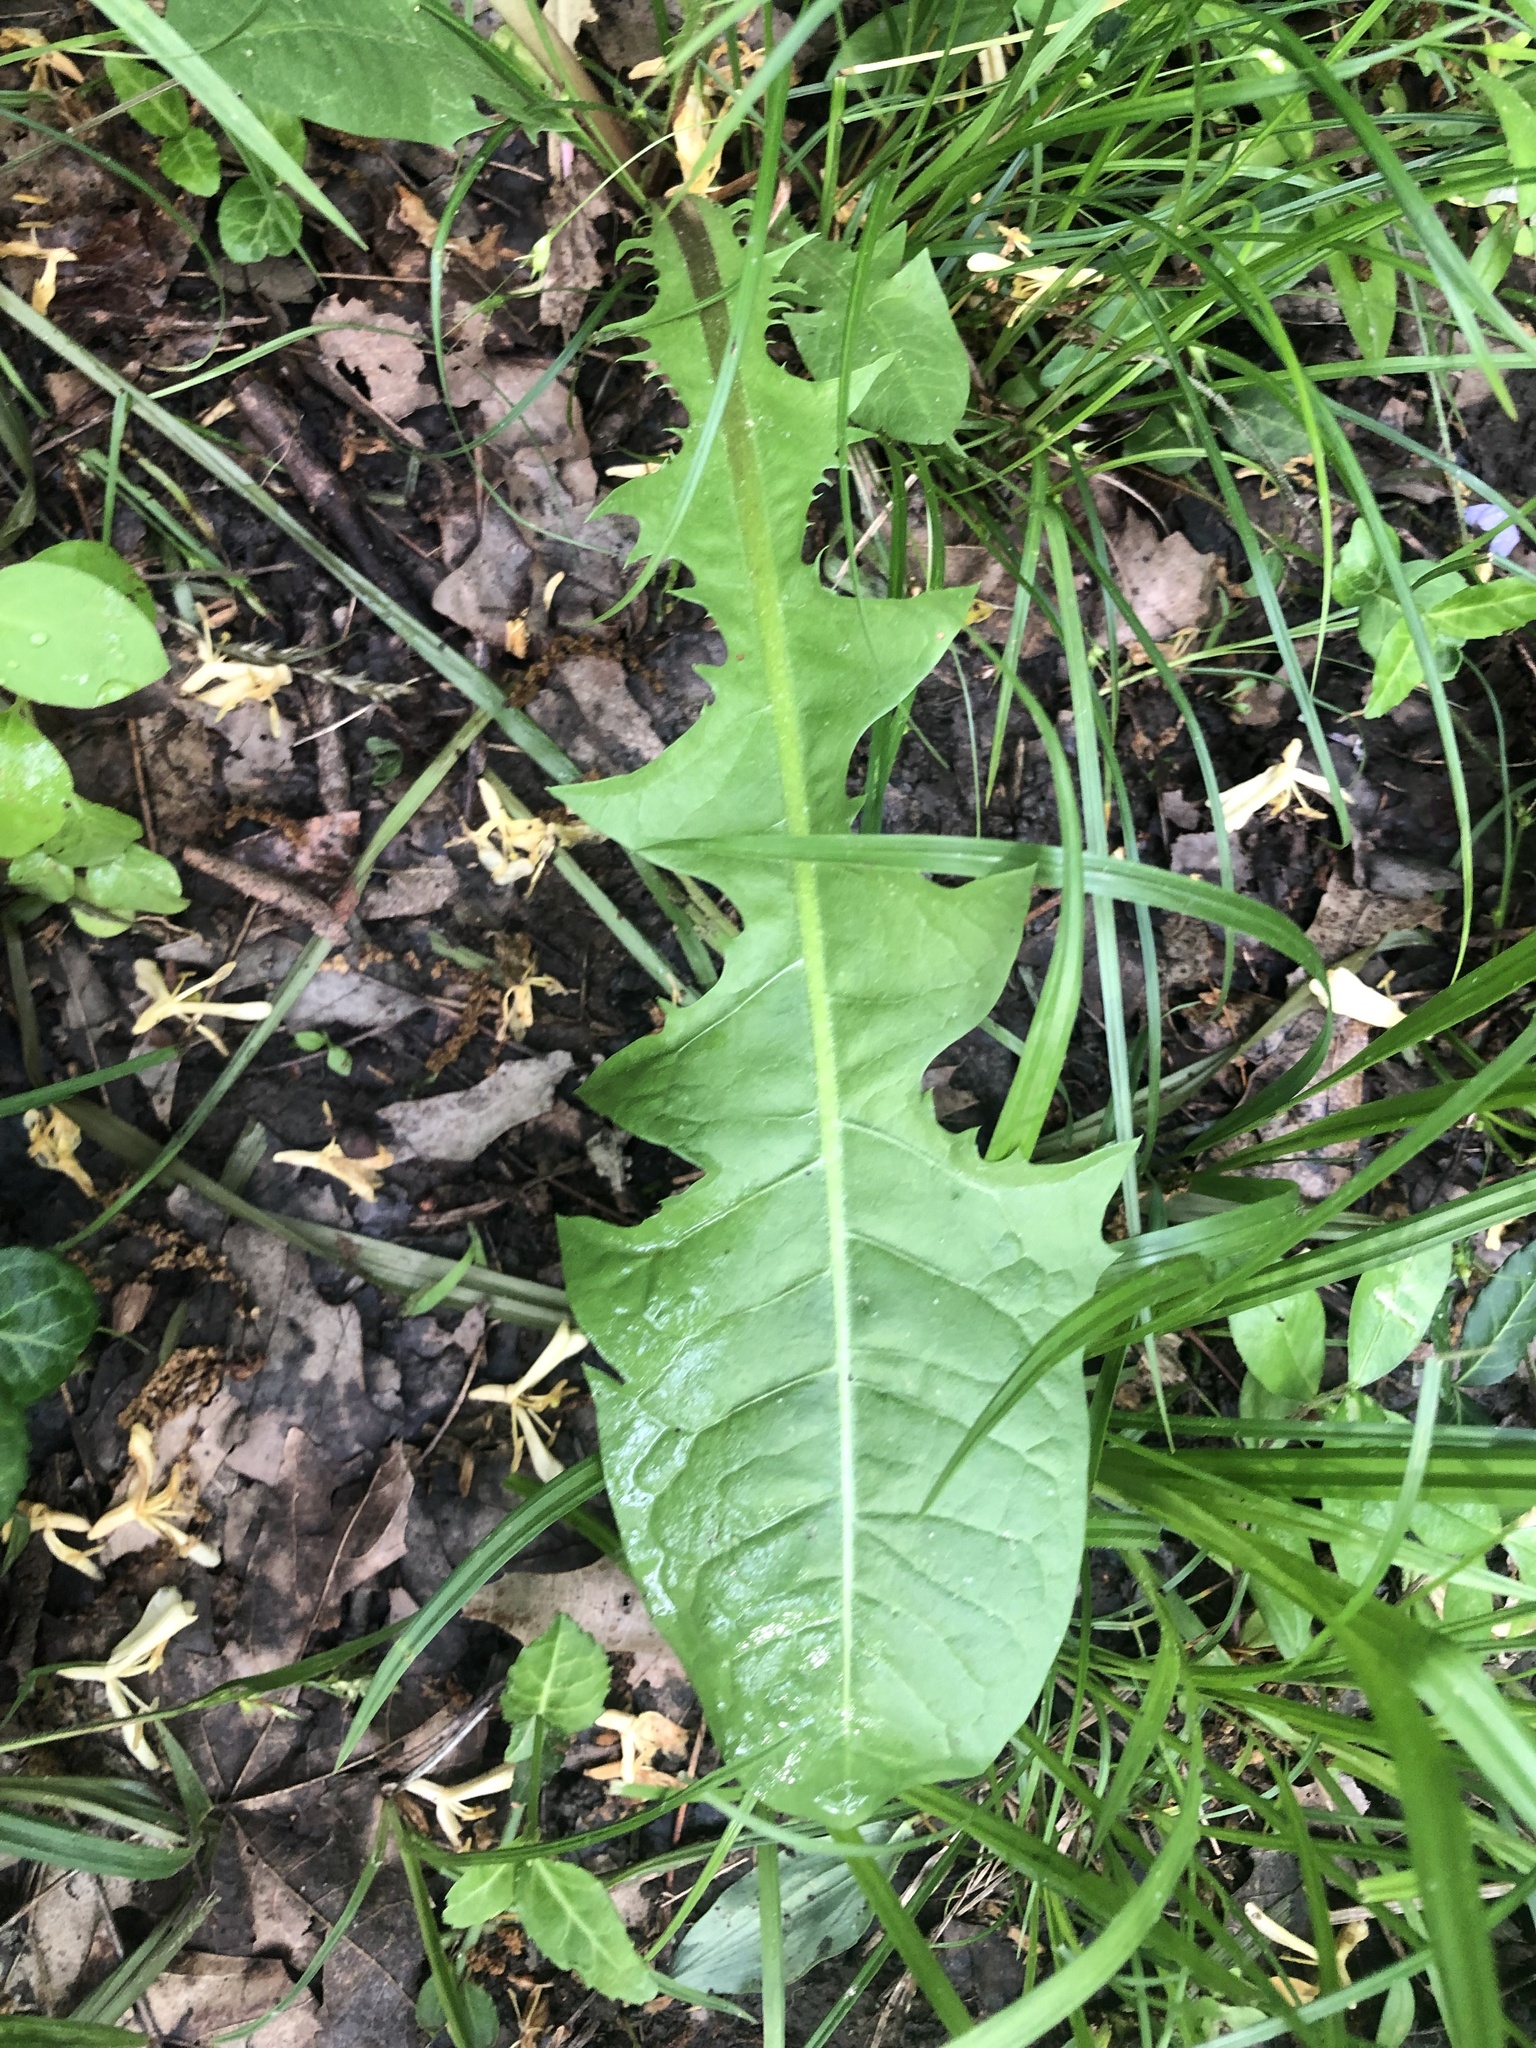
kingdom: Plantae
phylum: Tracheophyta
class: Magnoliopsida
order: Asterales
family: Asteraceae
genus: Taraxacum
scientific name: Taraxacum officinale
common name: Common dandelion
